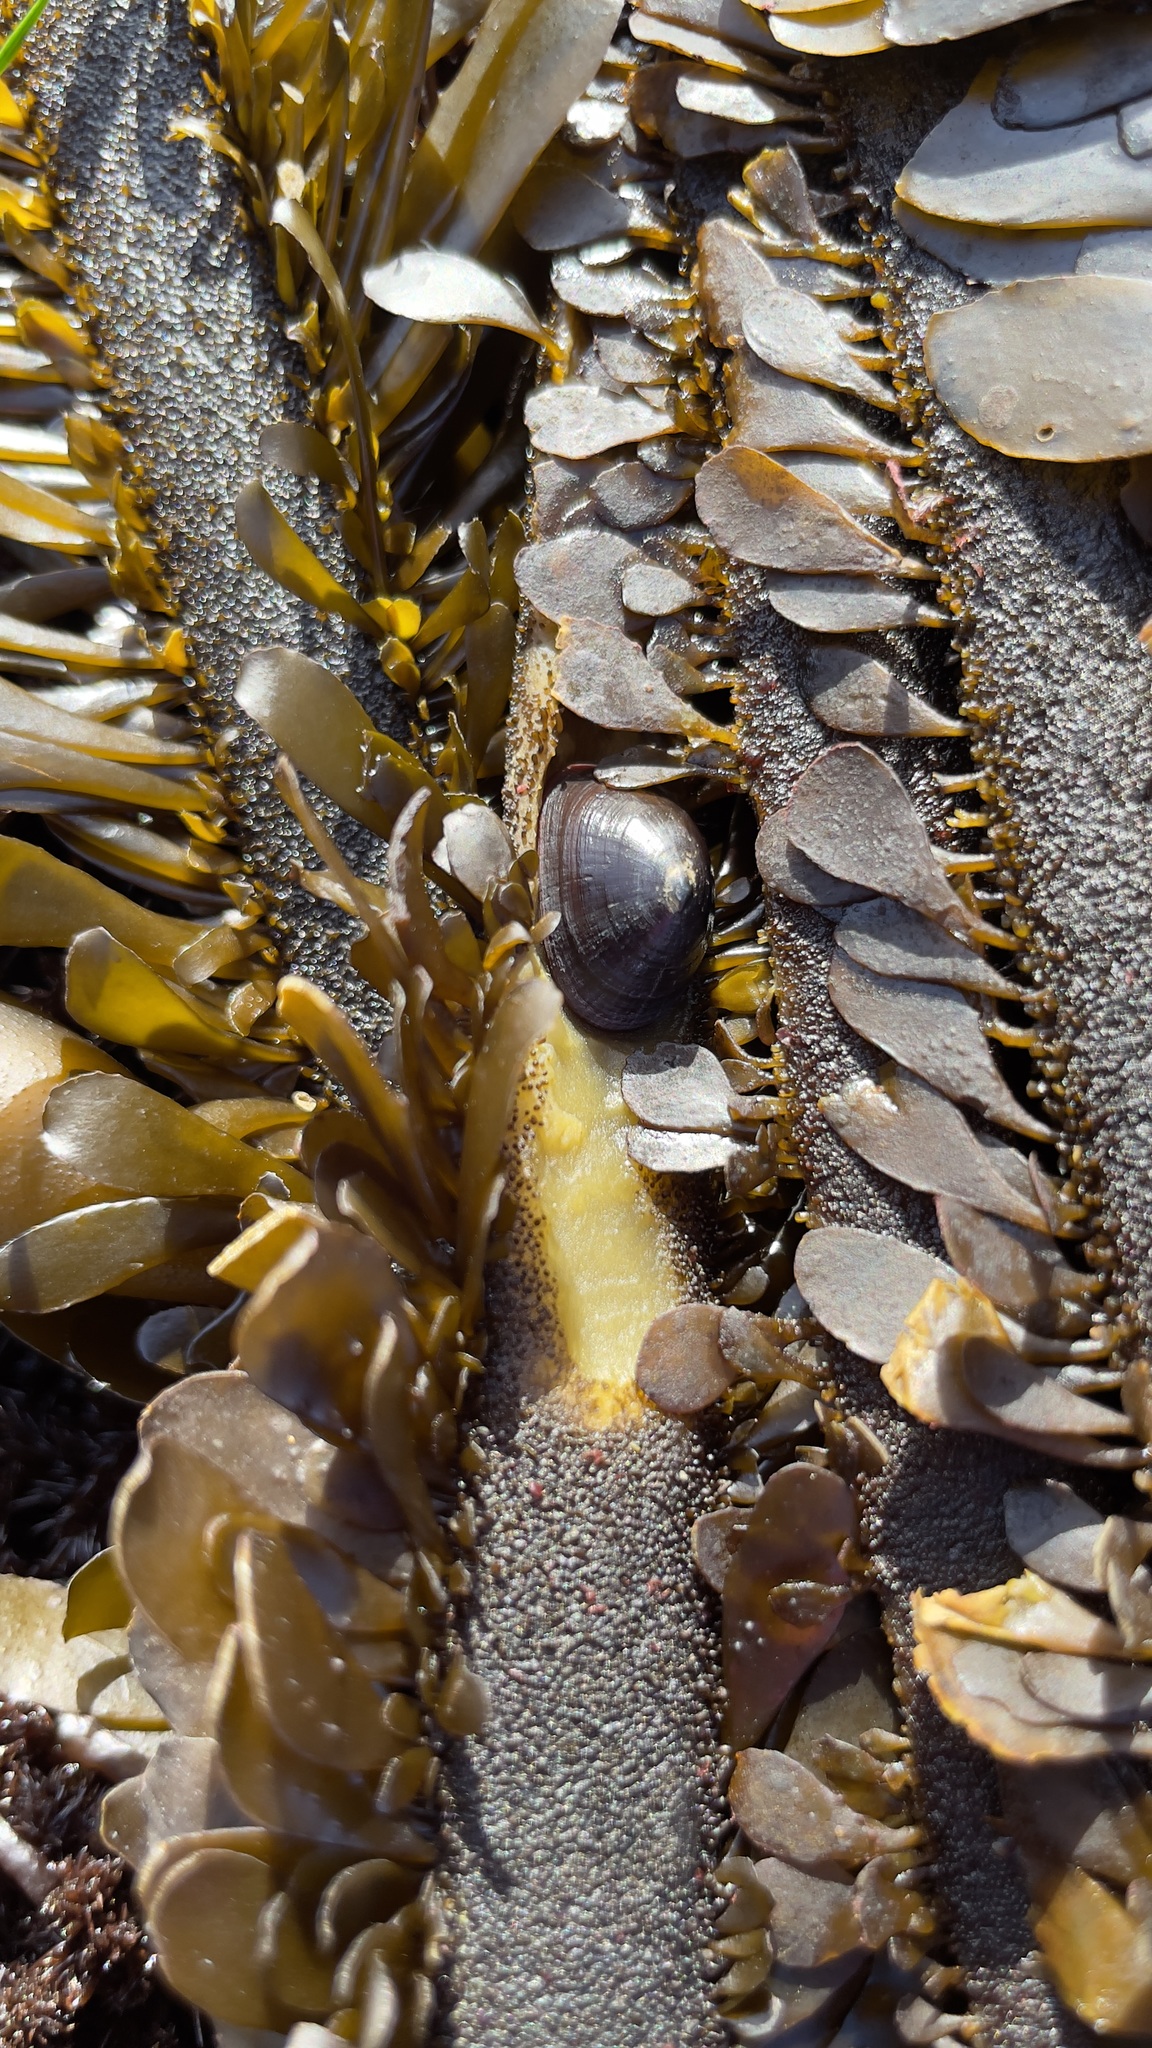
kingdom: Animalia
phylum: Mollusca
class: Gastropoda
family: Lottiidae
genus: Discurria
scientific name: Discurria insessa
